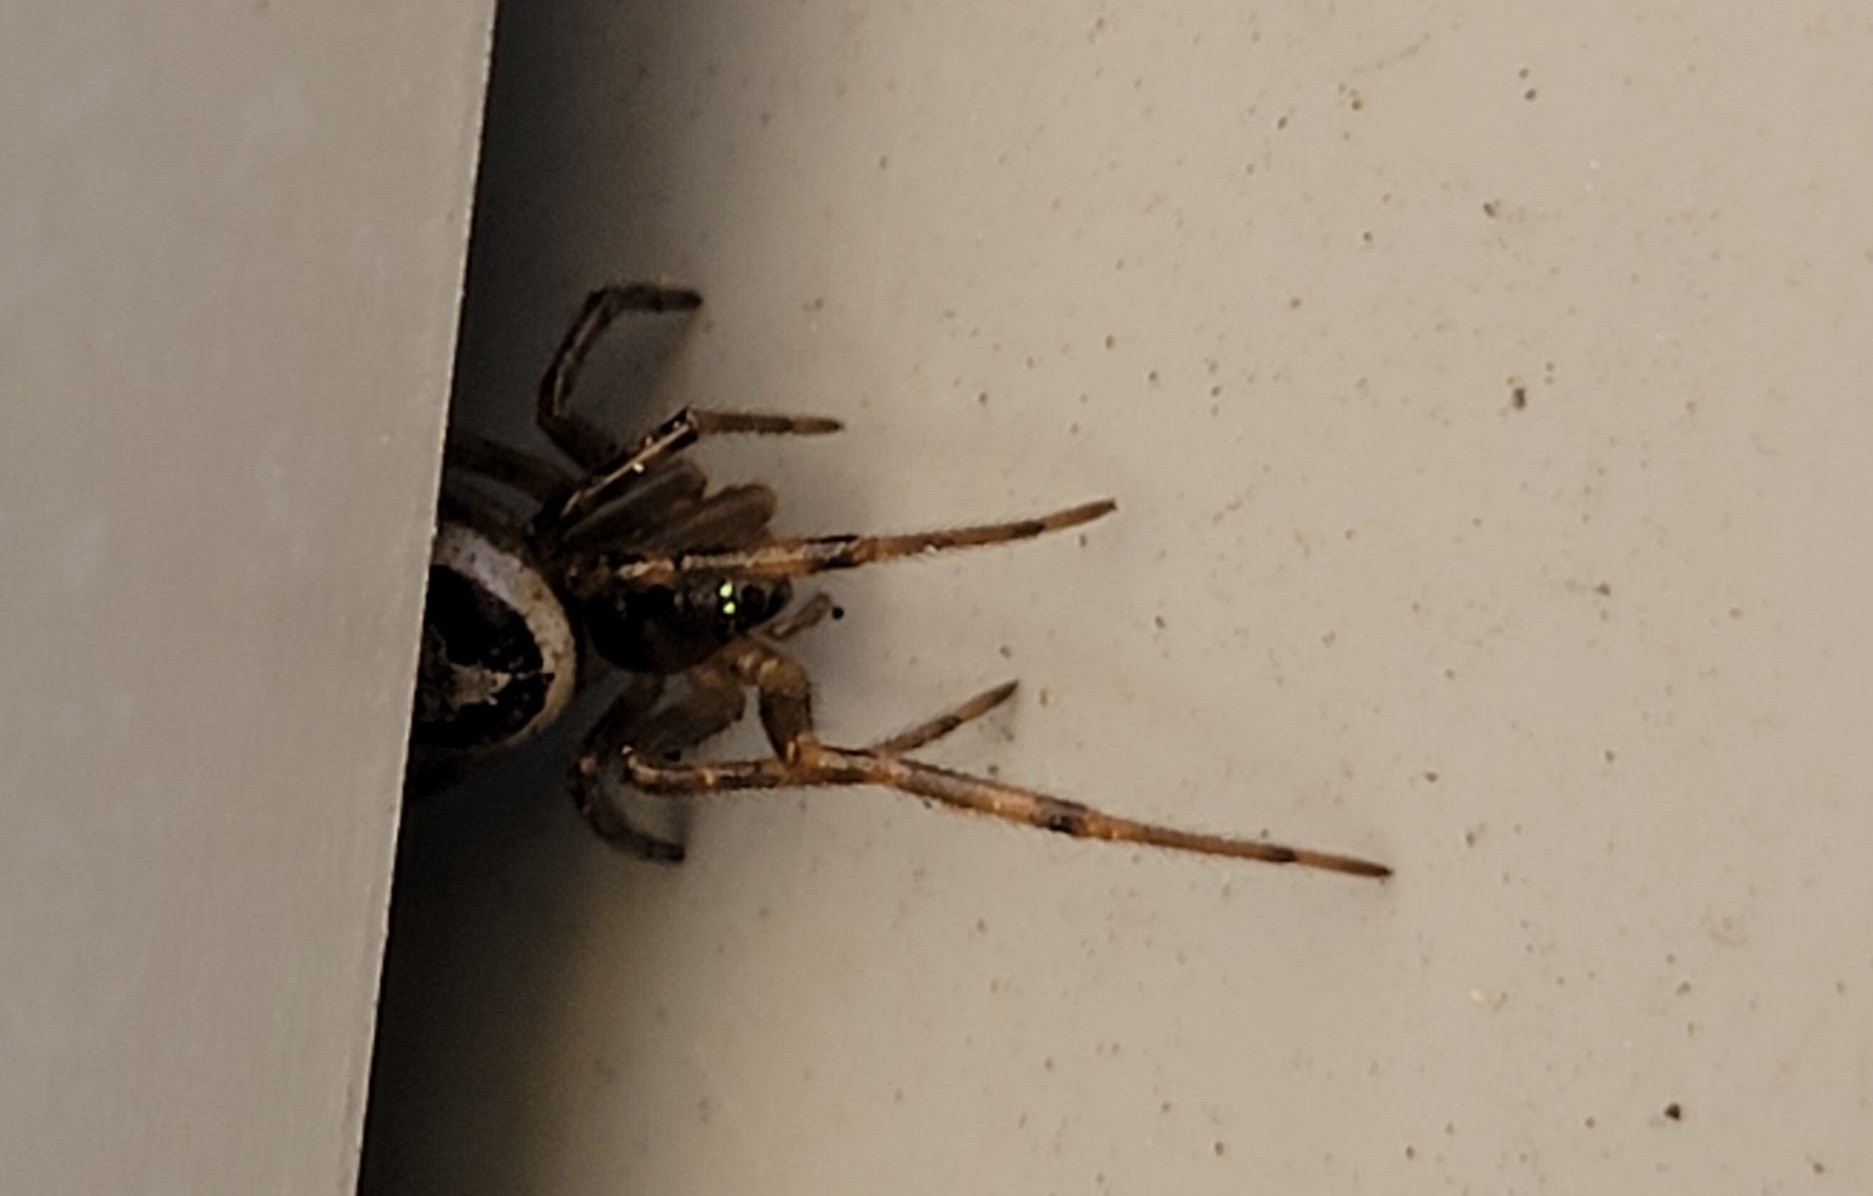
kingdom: Animalia
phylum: Arthropoda
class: Arachnida
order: Araneae
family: Theridiidae
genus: Steatoda
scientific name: Steatoda nobilis
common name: Cobweb weaver
